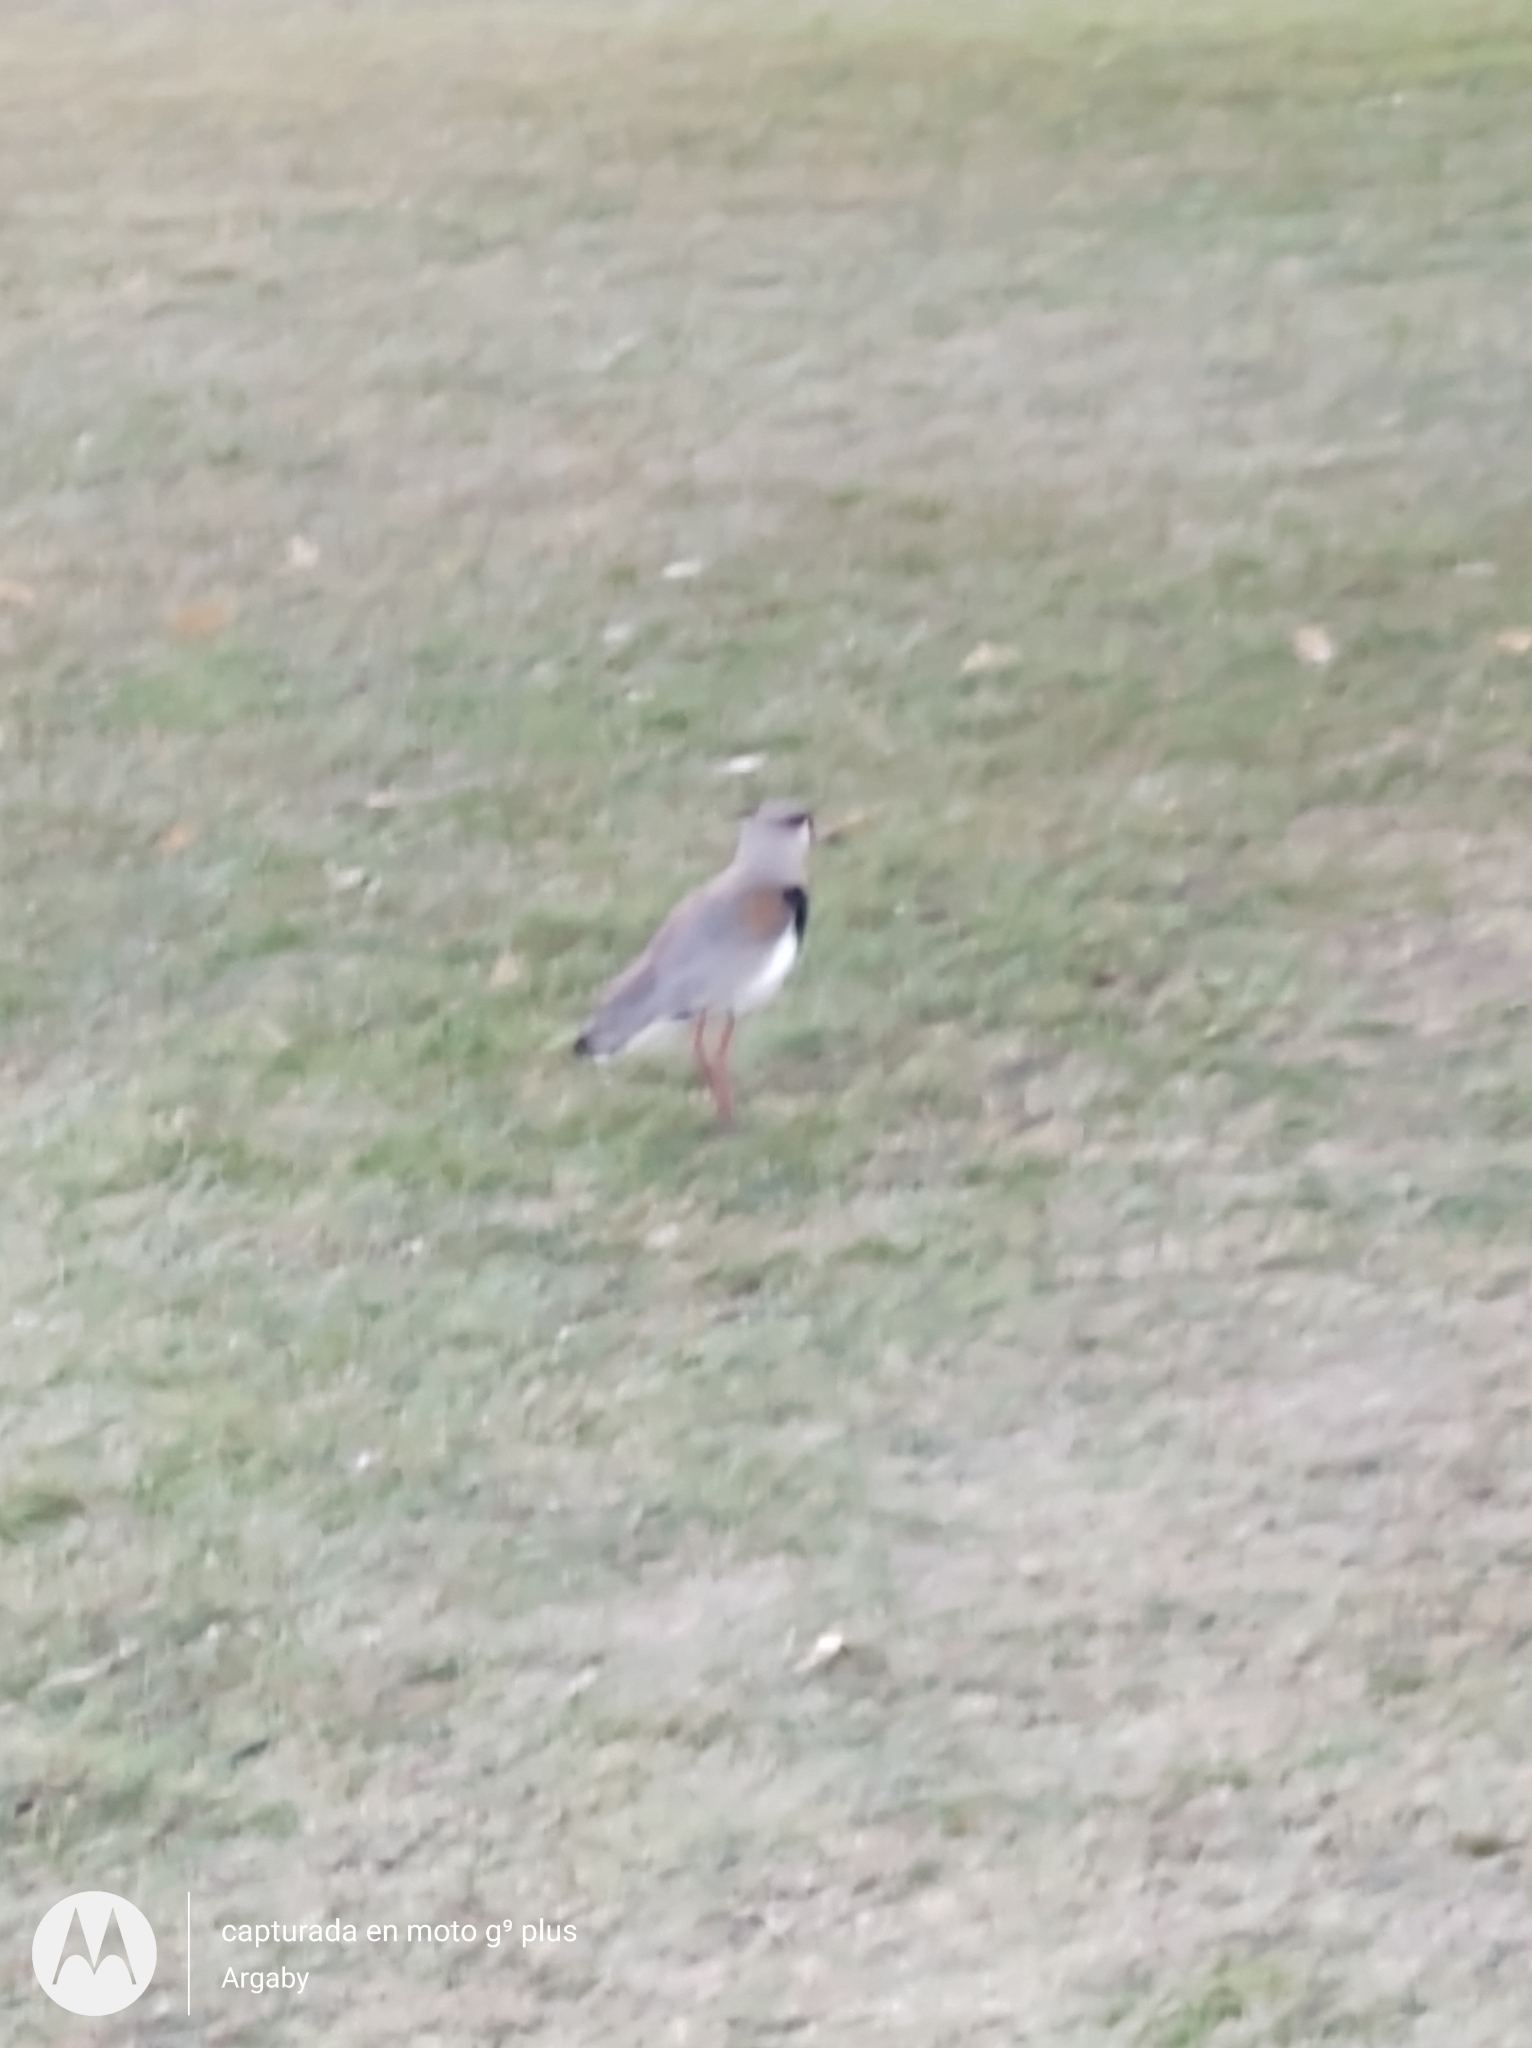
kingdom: Animalia
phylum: Chordata
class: Aves
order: Charadriiformes
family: Charadriidae
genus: Vanellus
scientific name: Vanellus chilensis
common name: Southern lapwing
